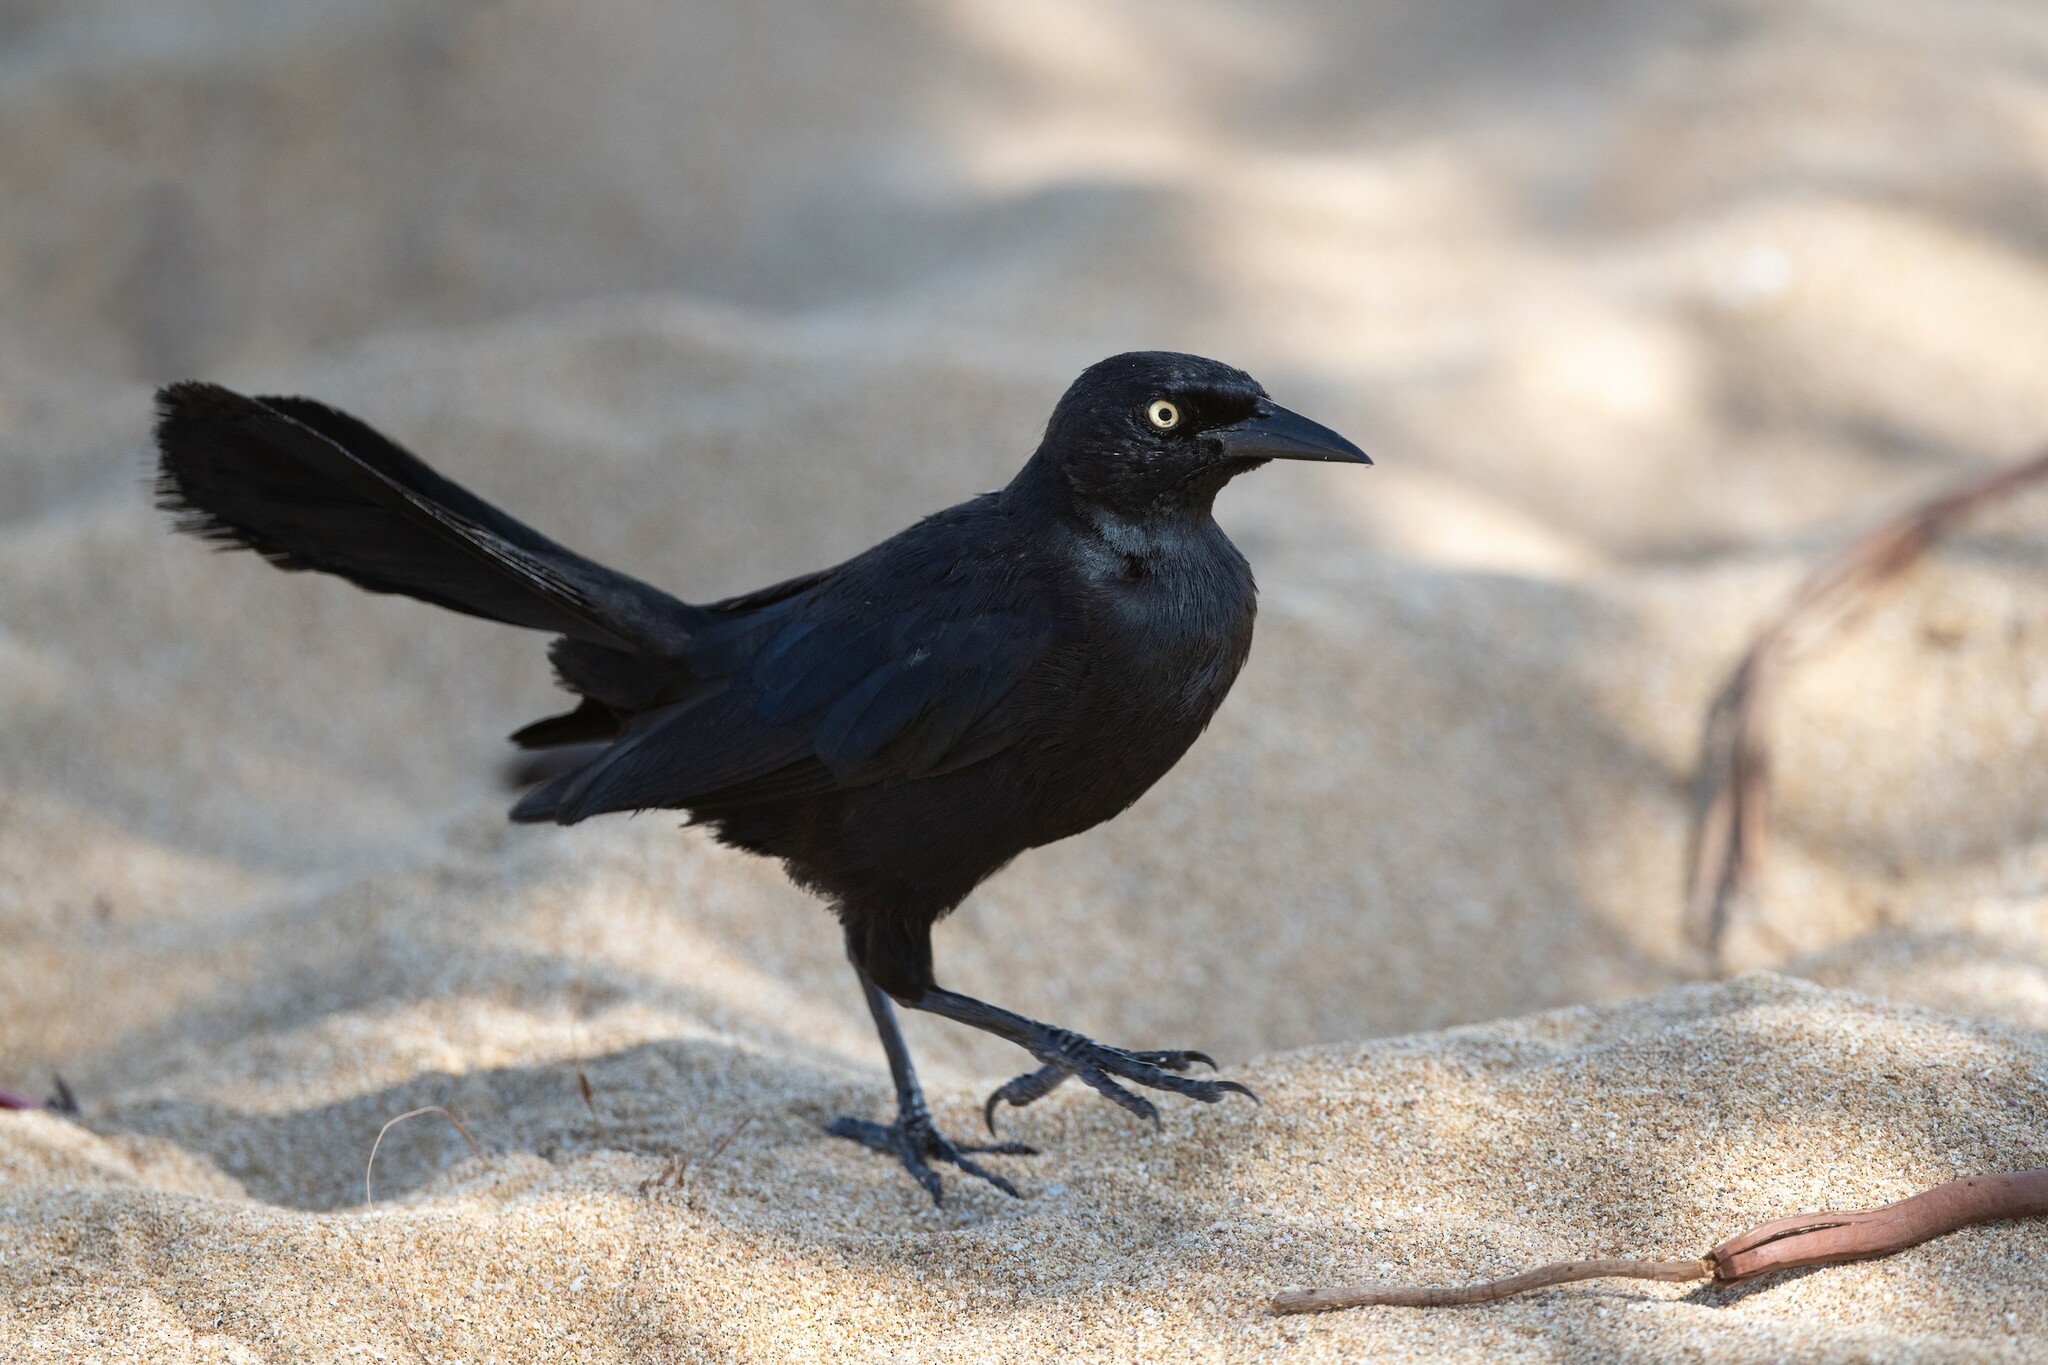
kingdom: Animalia
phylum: Chordata
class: Aves
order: Passeriformes
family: Icteridae
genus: Quiscalus
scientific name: Quiscalus niger
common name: Greater antillean grackle
